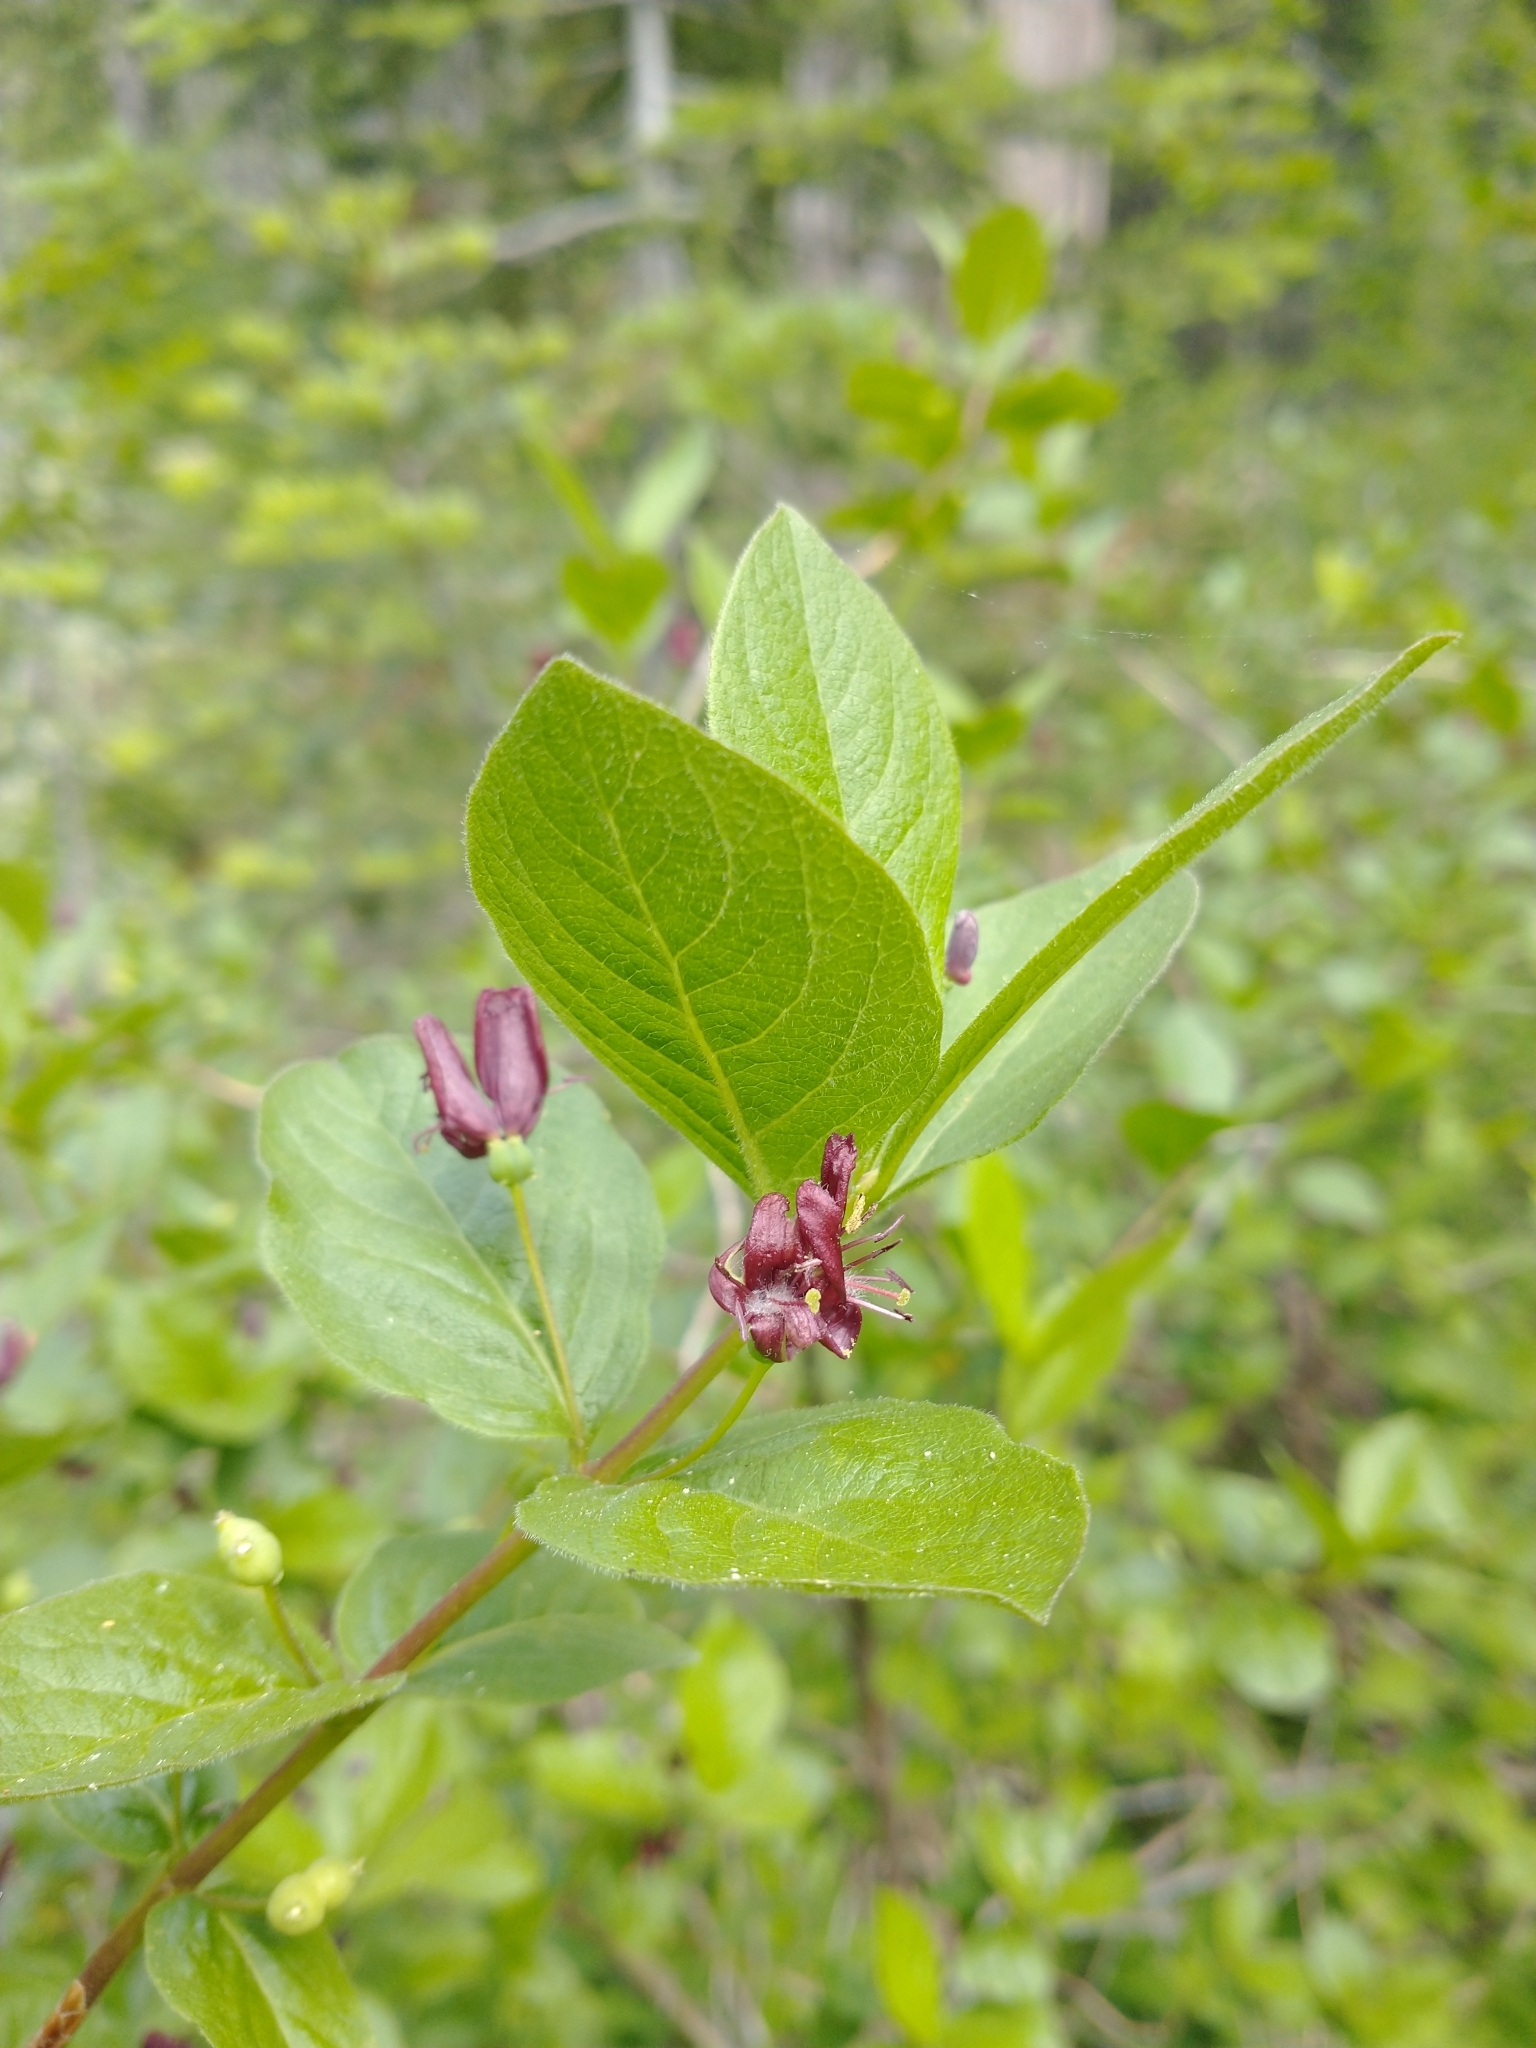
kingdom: Plantae
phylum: Tracheophyta
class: Magnoliopsida
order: Dipsacales
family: Caprifoliaceae
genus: Lonicera
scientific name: Lonicera conjugialis
